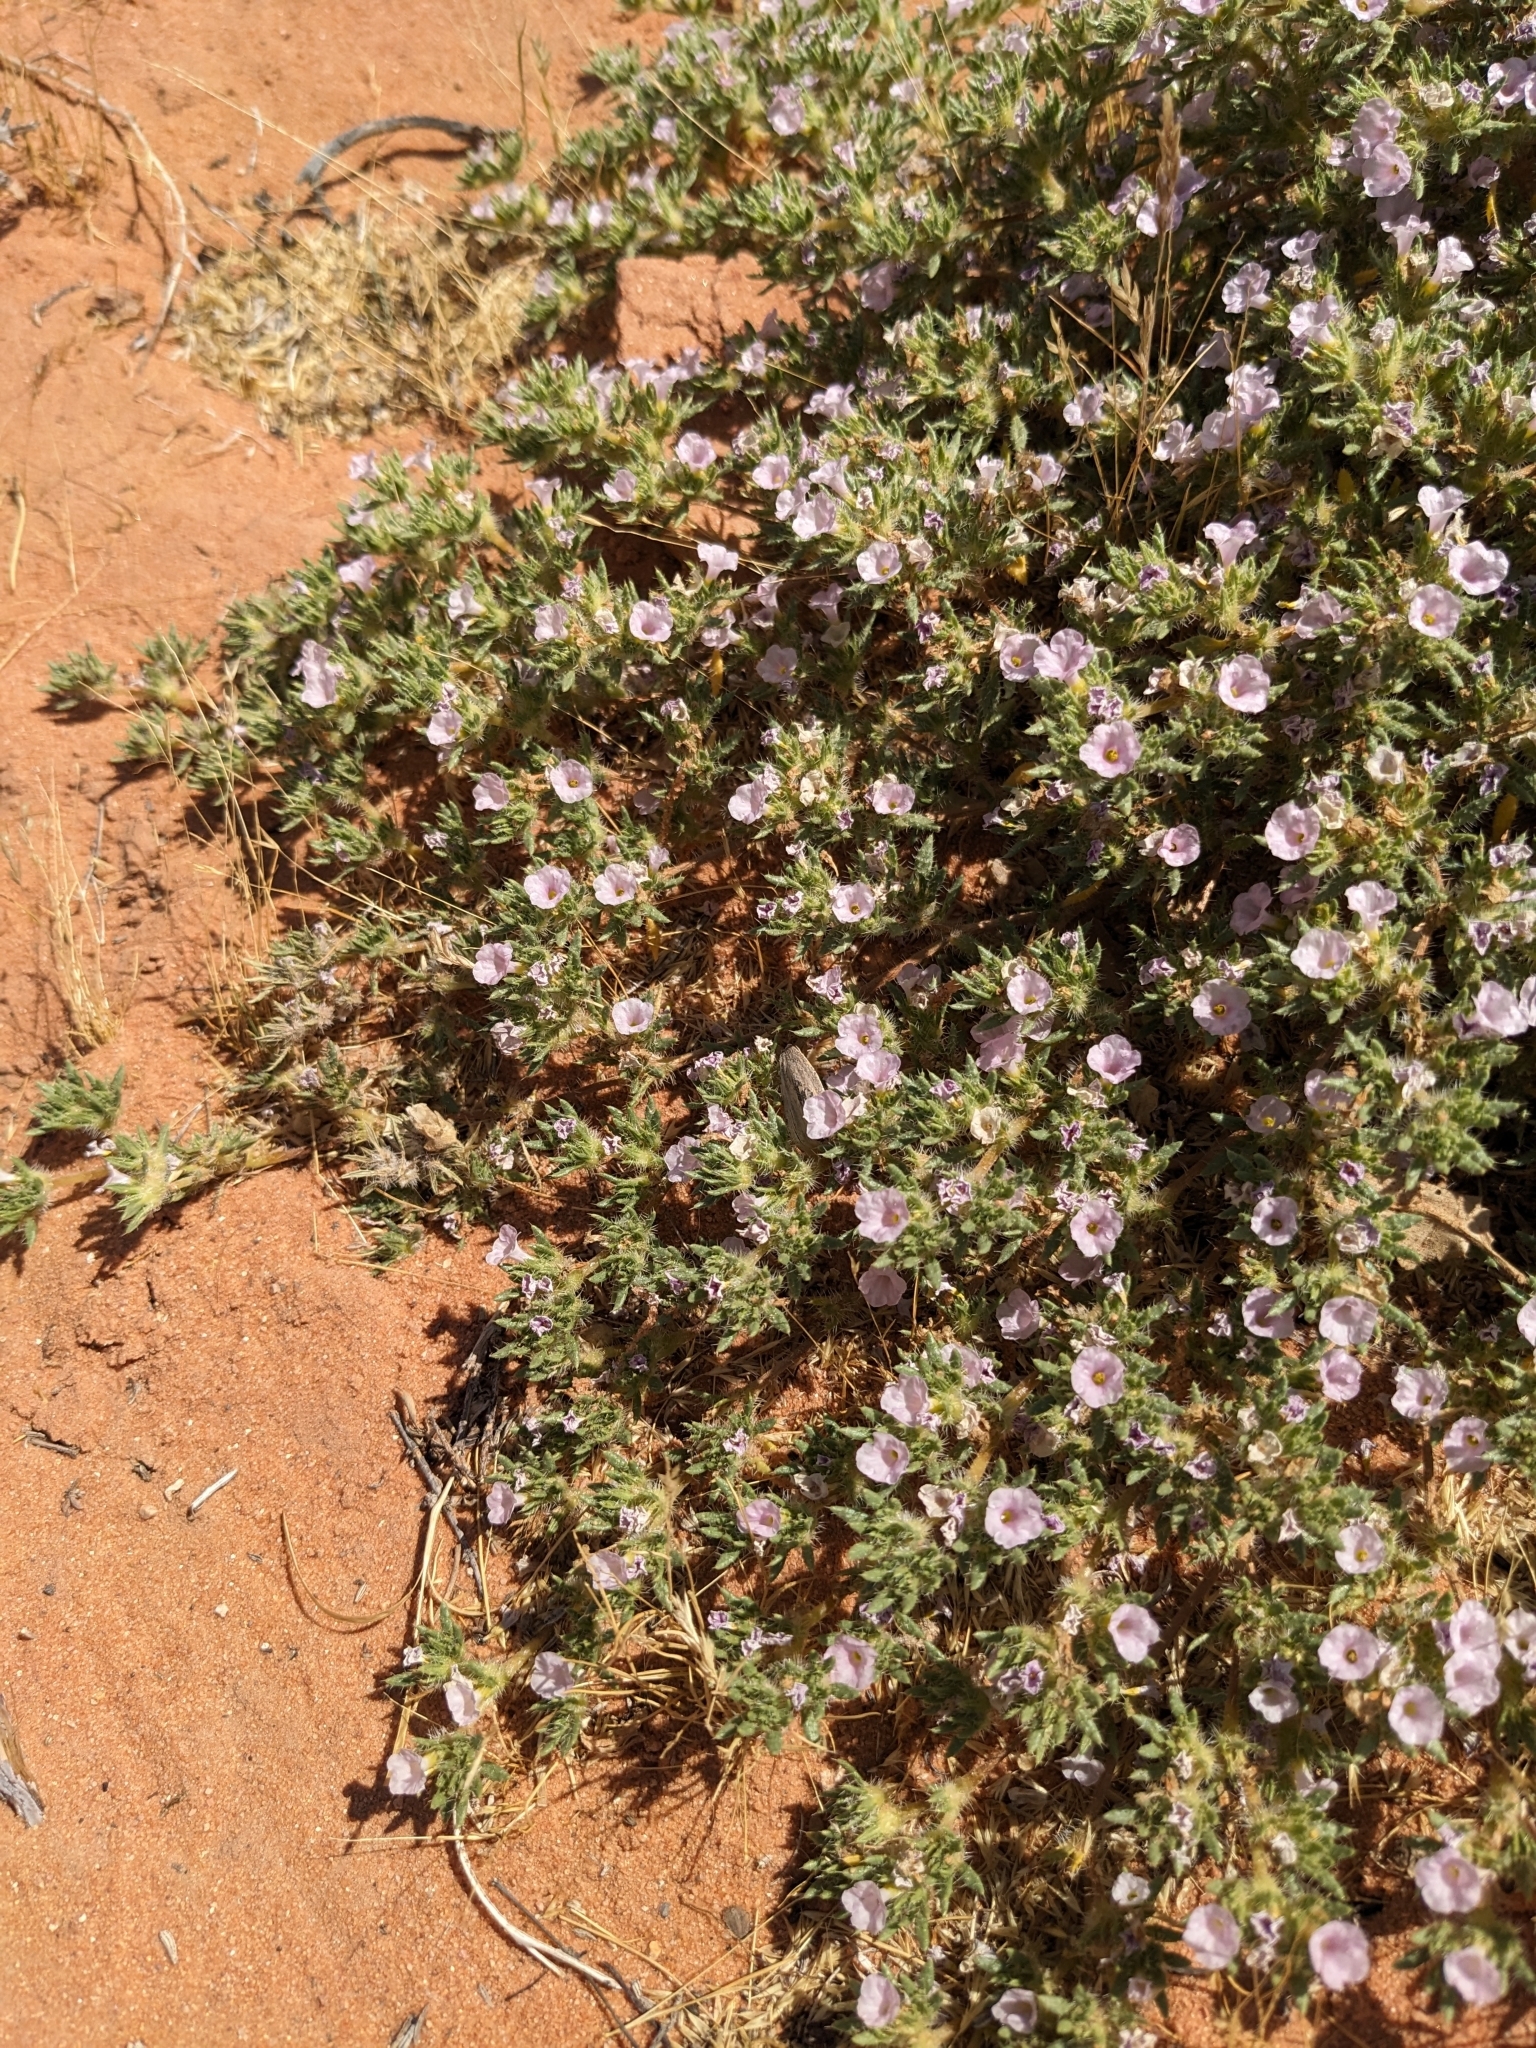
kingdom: Plantae
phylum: Tracheophyta
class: Magnoliopsida
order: Boraginales
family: Ehretiaceae
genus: Tiquilia
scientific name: Tiquilia latior
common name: Matted tiquilia
